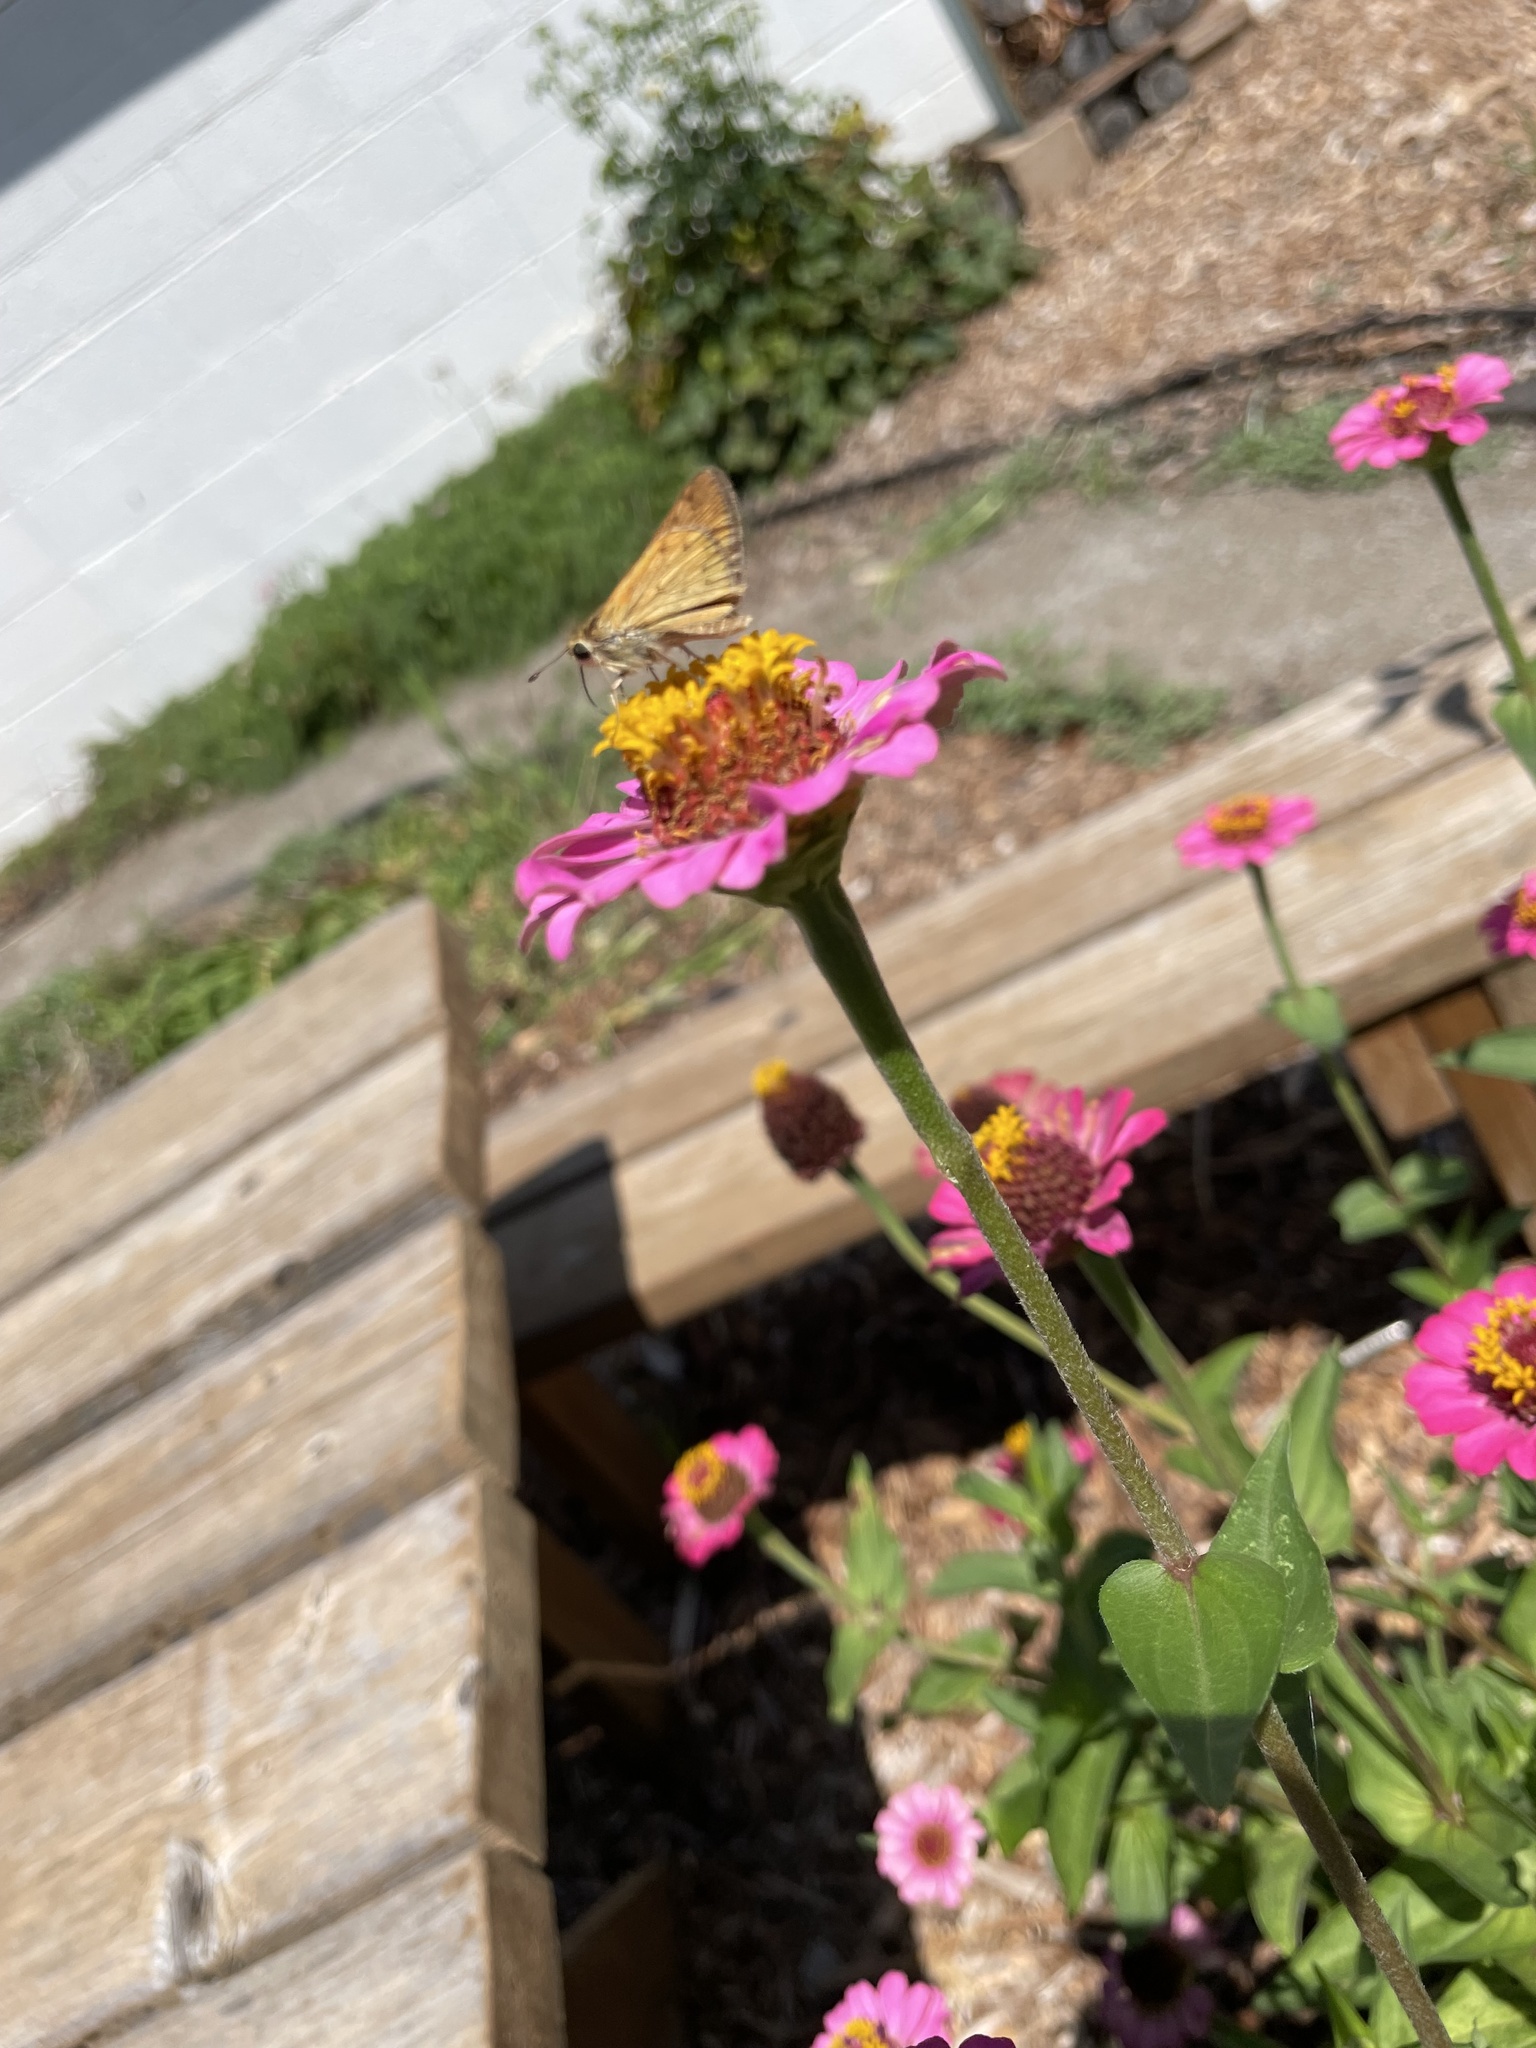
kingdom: Animalia
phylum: Arthropoda
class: Insecta
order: Lepidoptera
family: Hesperiidae
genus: Hylephila
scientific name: Hylephila phyleus
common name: Fiery skipper
